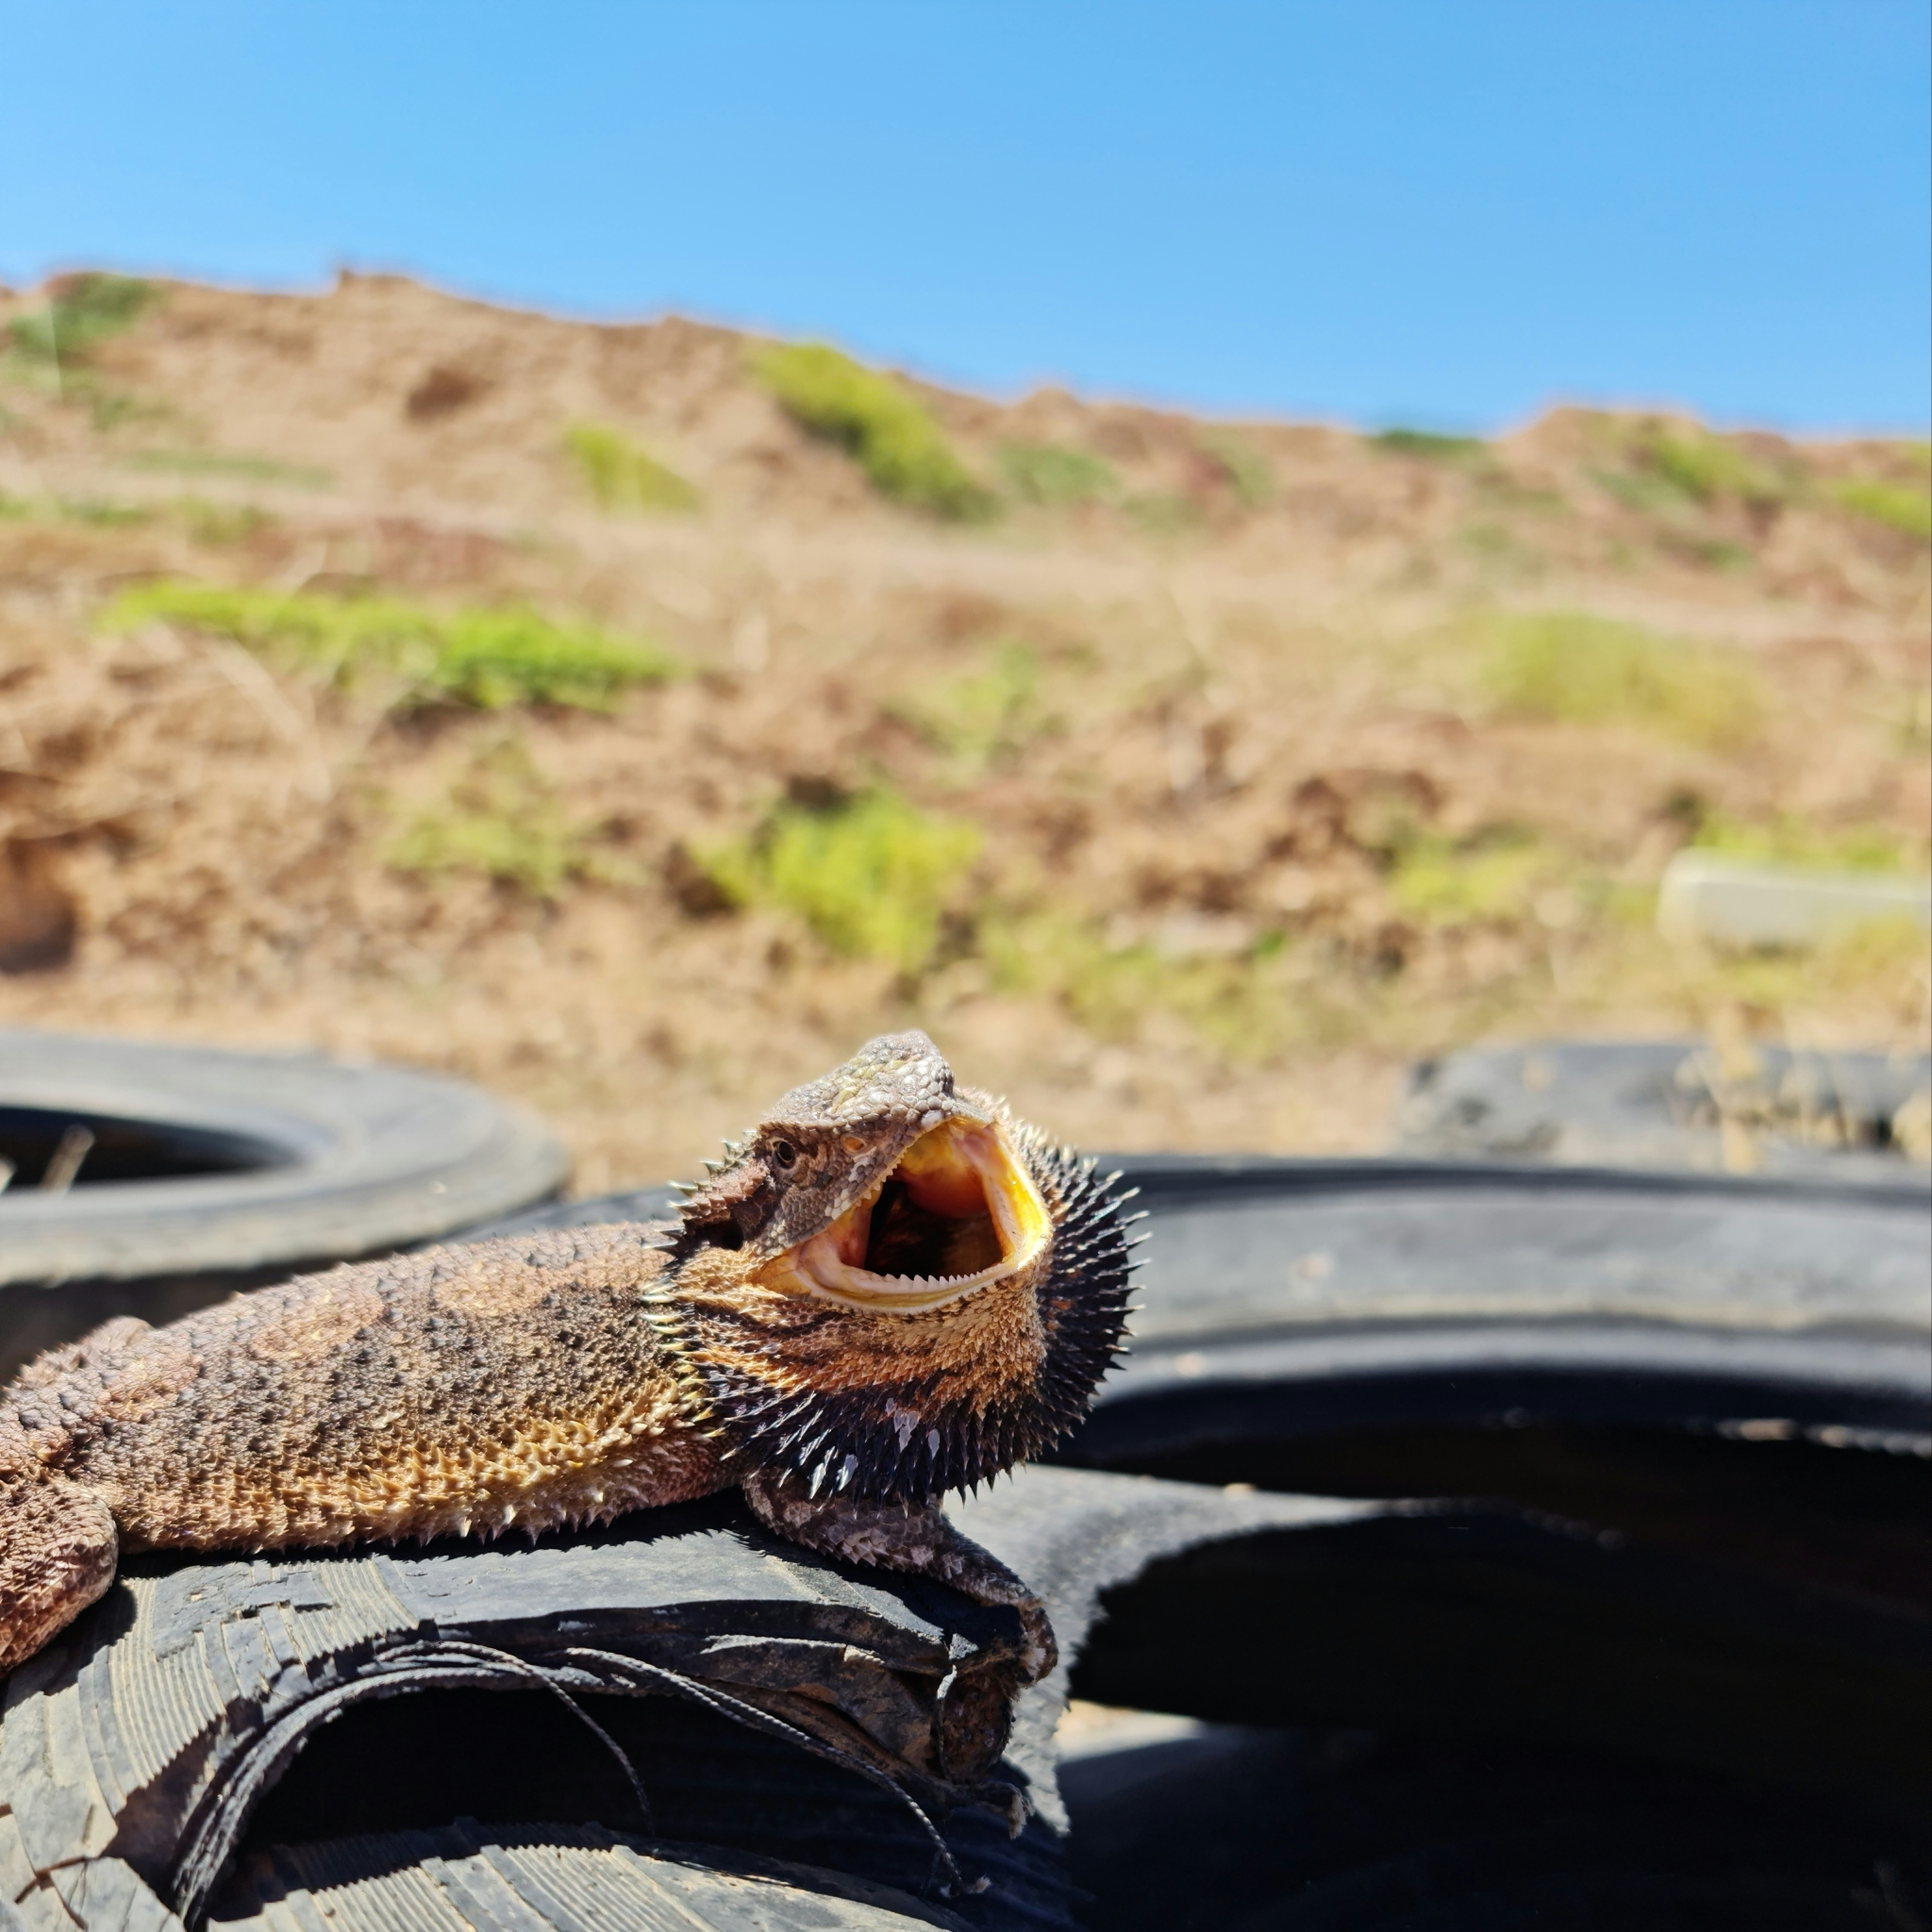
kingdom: Animalia
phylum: Chordata
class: Squamata
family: Agamidae
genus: Pogona
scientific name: Pogona barbata
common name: Bearded dragon
